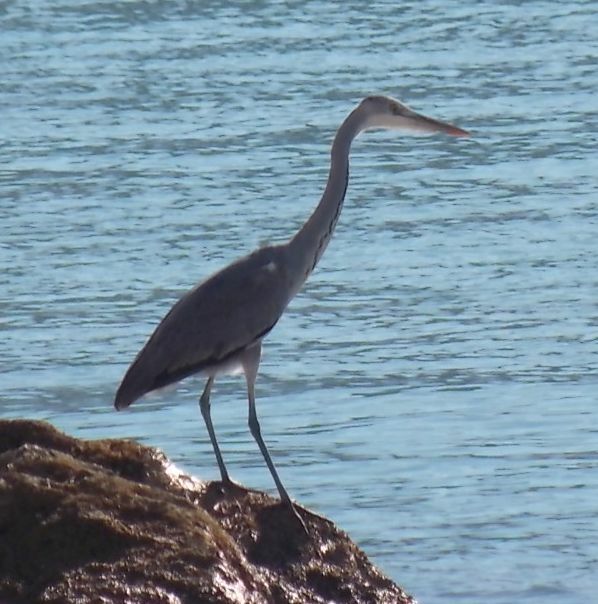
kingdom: Animalia
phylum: Chordata
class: Aves
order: Pelecaniformes
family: Ardeidae
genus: Ardea
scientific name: Ardea cinerea
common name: Grey heron
